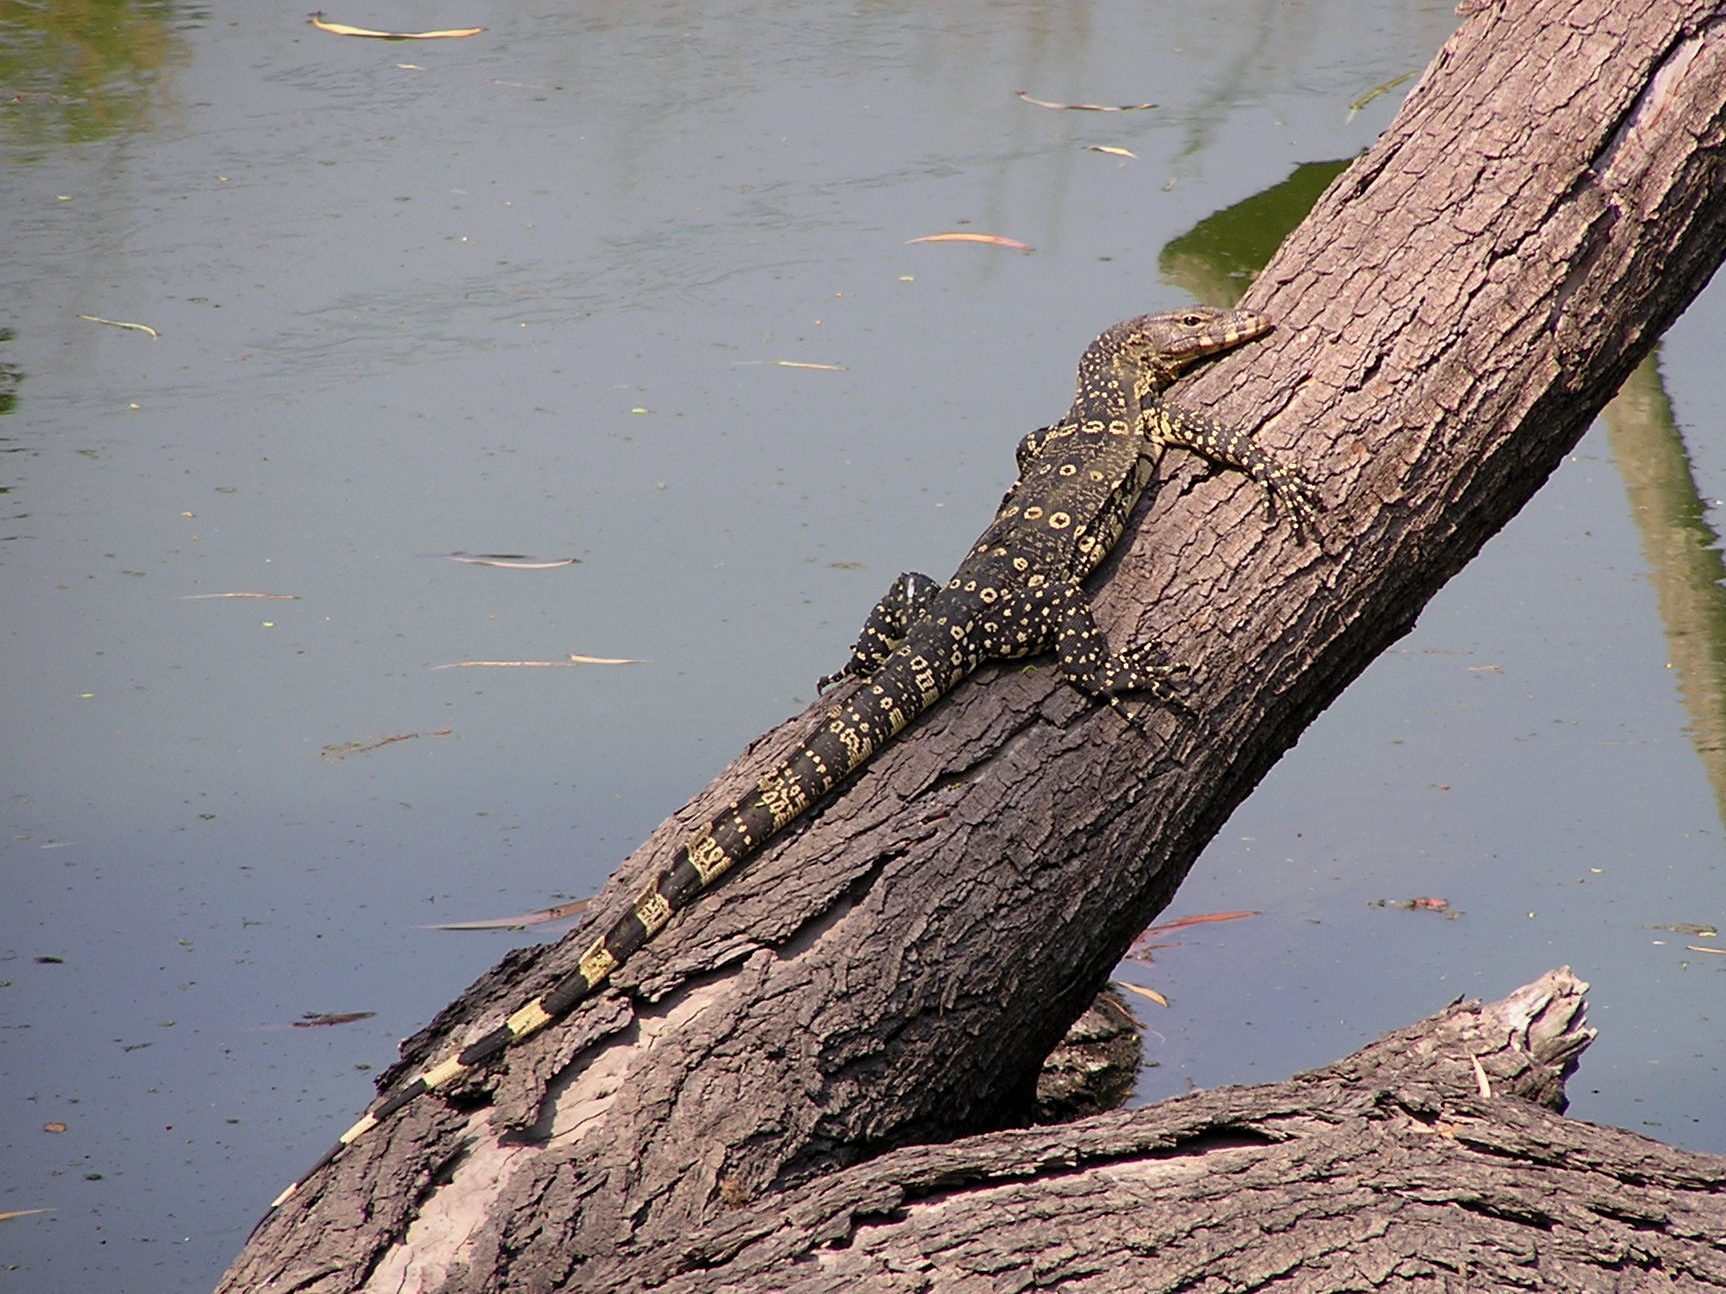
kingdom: Animalia
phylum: Chordata
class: Squamata
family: Varanidae
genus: Varanus
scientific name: Varanus salvator
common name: Common water monitor
